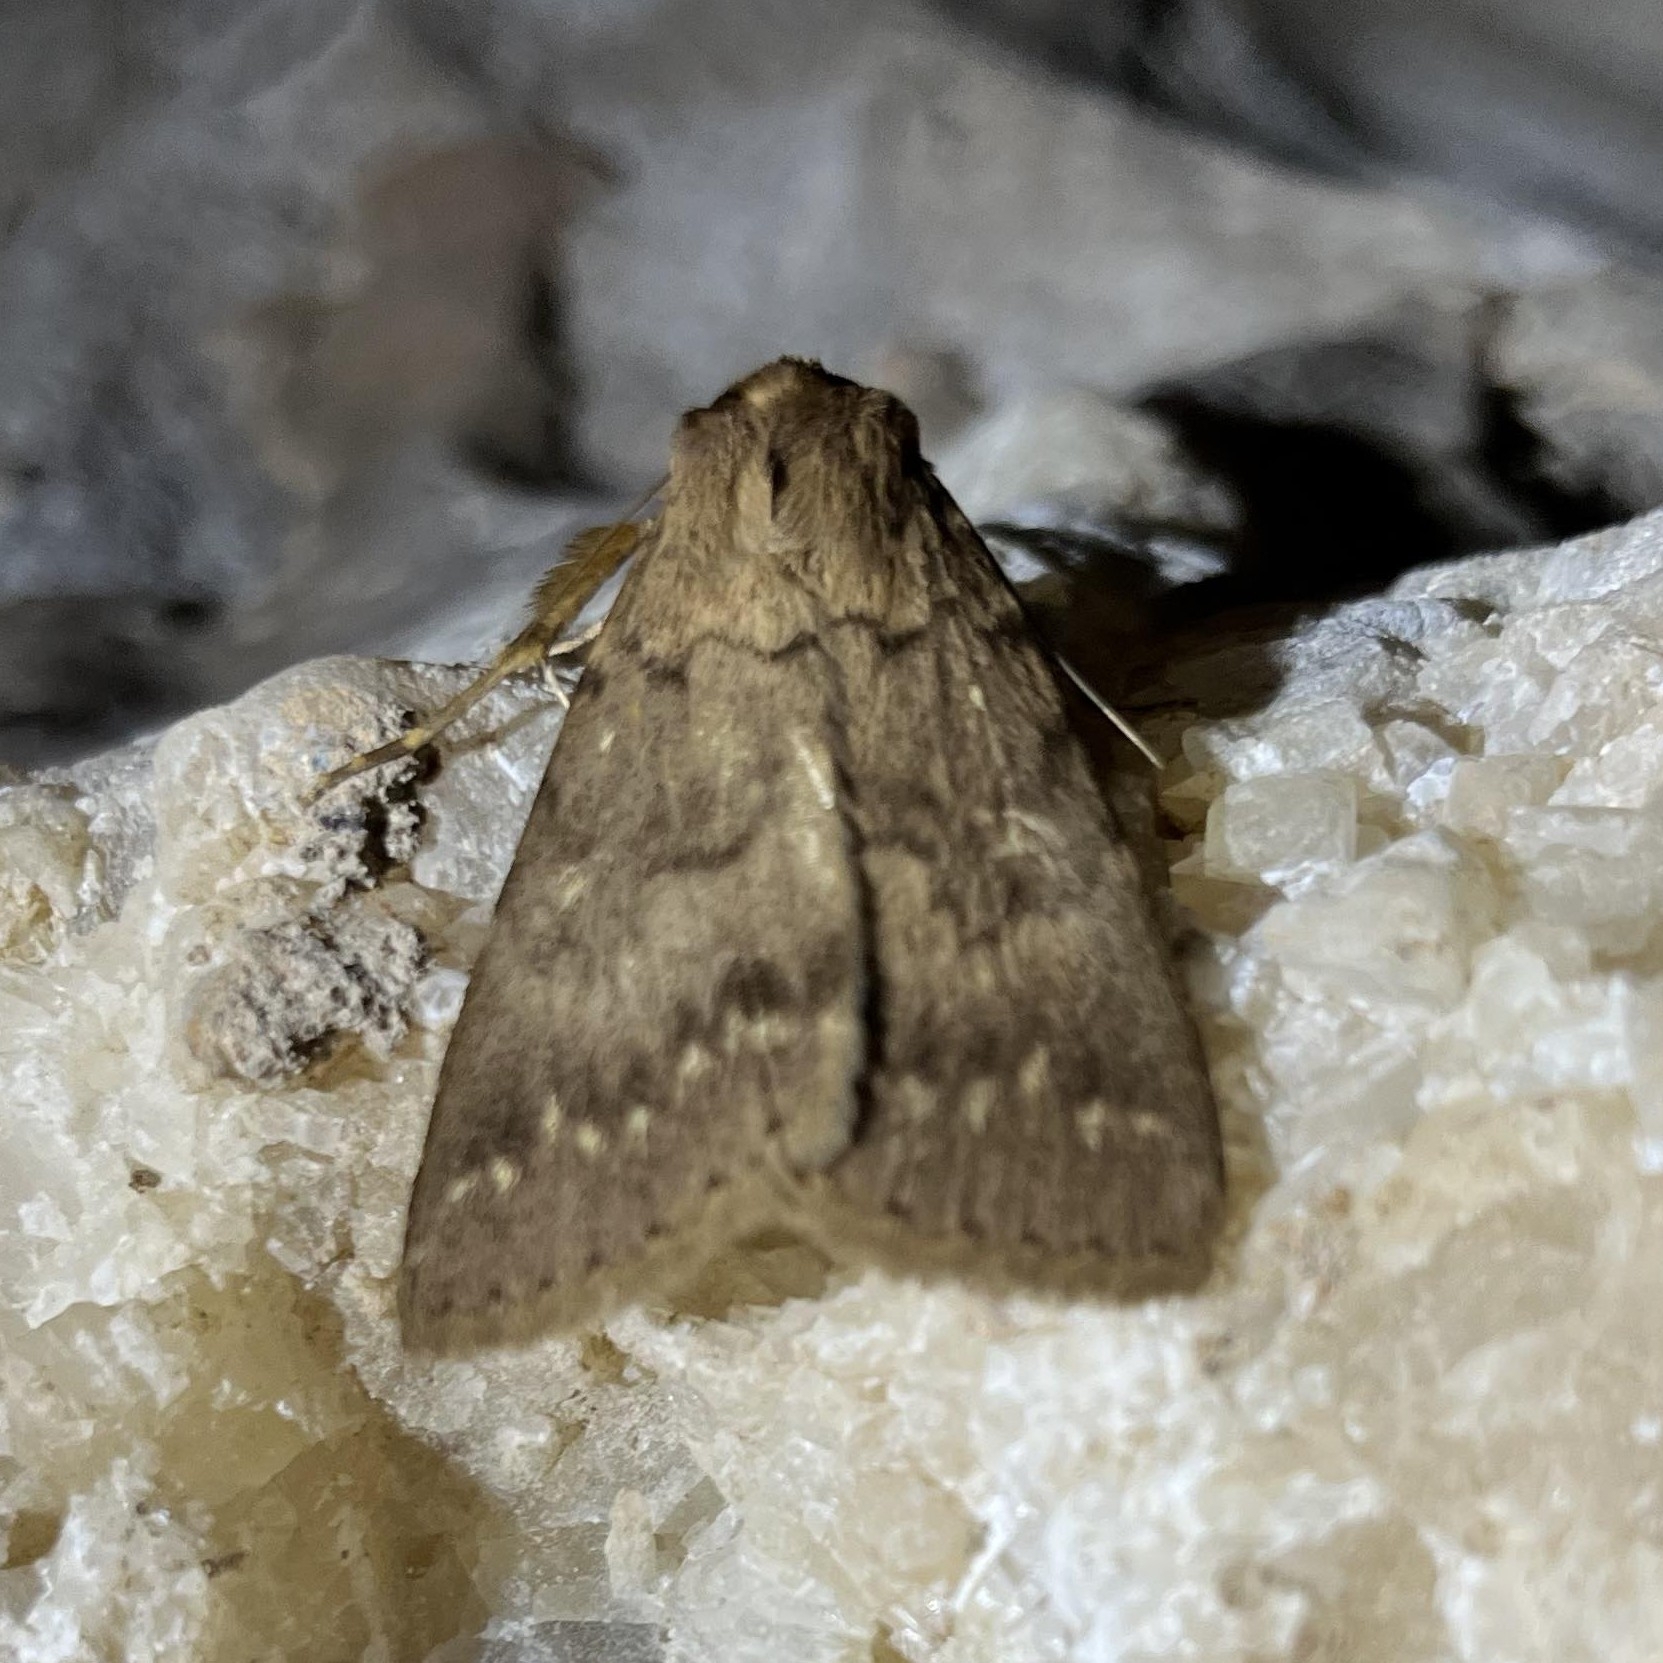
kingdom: Animalia
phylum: Arthropoda
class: Insecta
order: Lepidoptera
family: Erebidae
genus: Apopestes
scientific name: Apopestes spectrum
